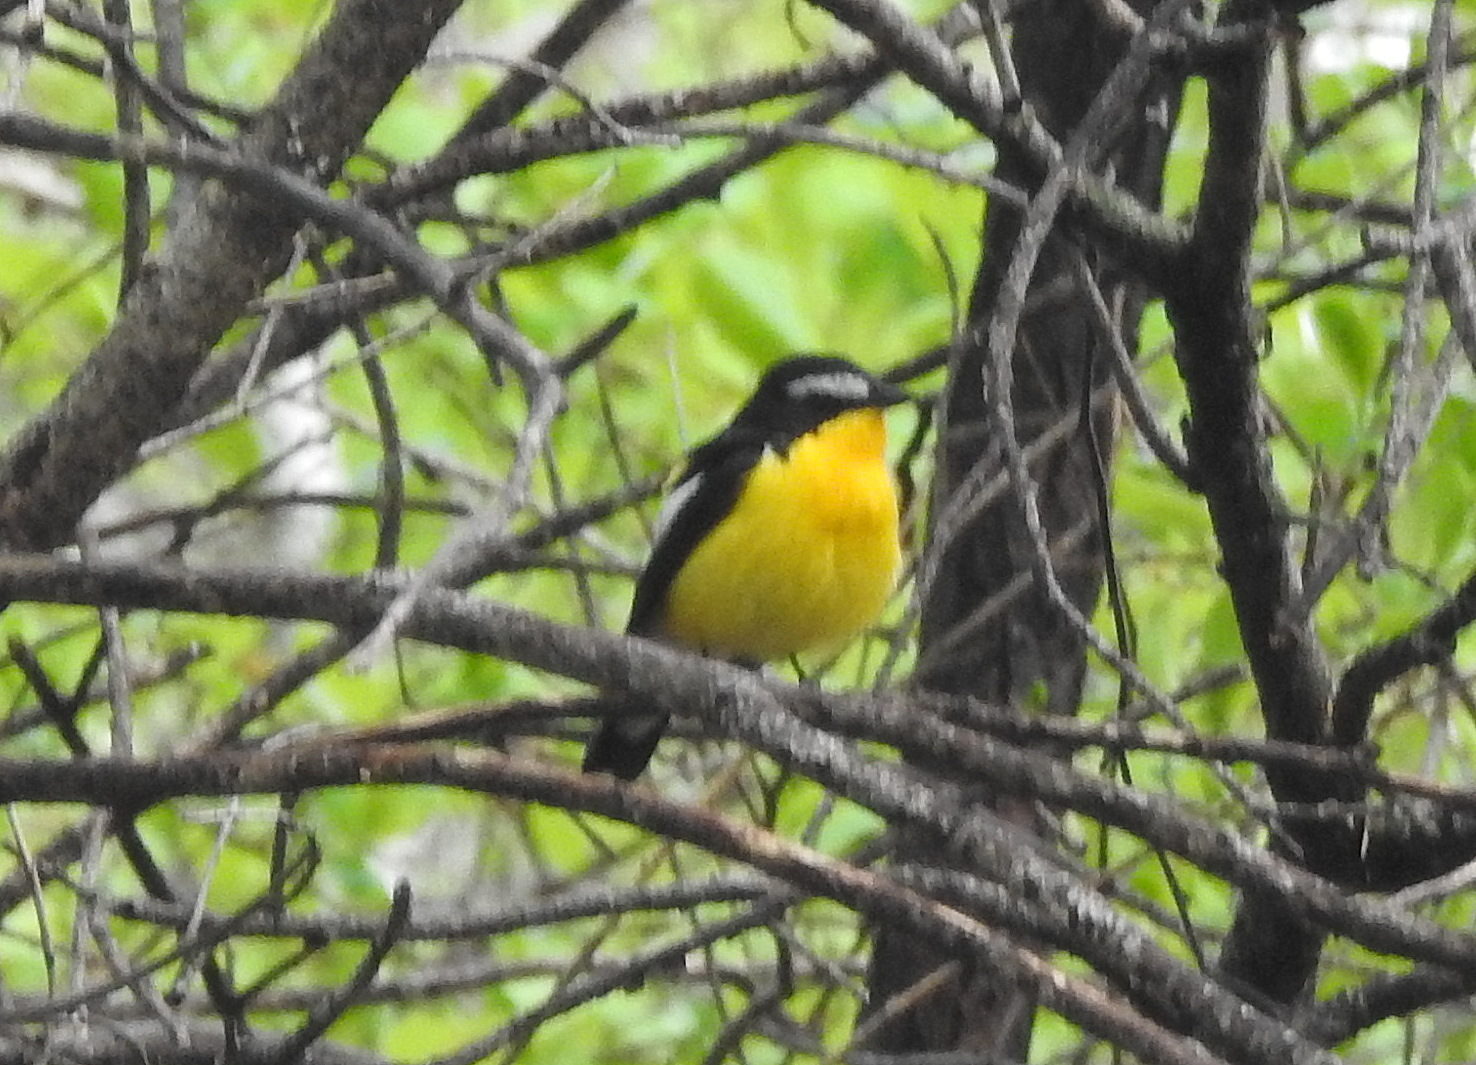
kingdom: Animalia
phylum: Chordata
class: Aves
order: Passeriformes
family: Muscicapidae
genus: Ficedula
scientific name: Ficedula zanthopygia
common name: Yellow-rumped flycatcher
